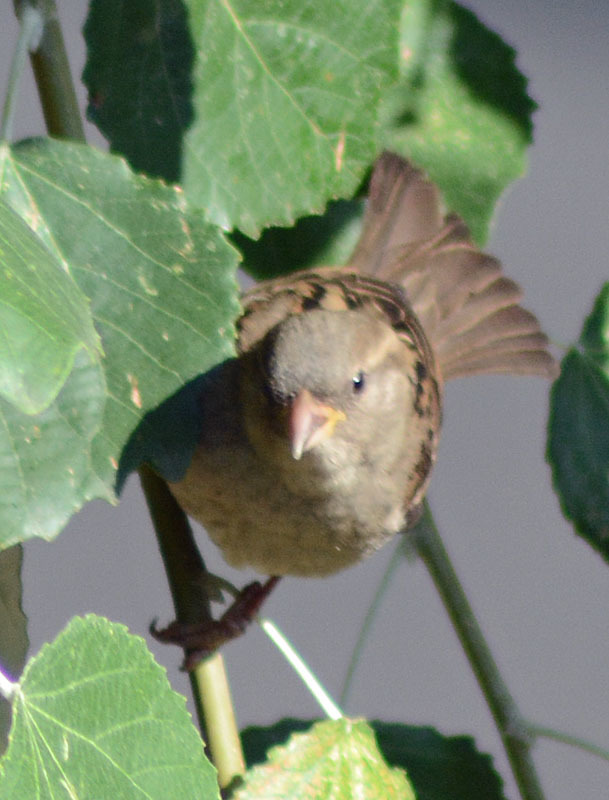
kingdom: Animalia
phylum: Chordata
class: Aves
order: Passeriformes
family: Passeridae
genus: Passer
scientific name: Passer domesticus
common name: House sparrow
